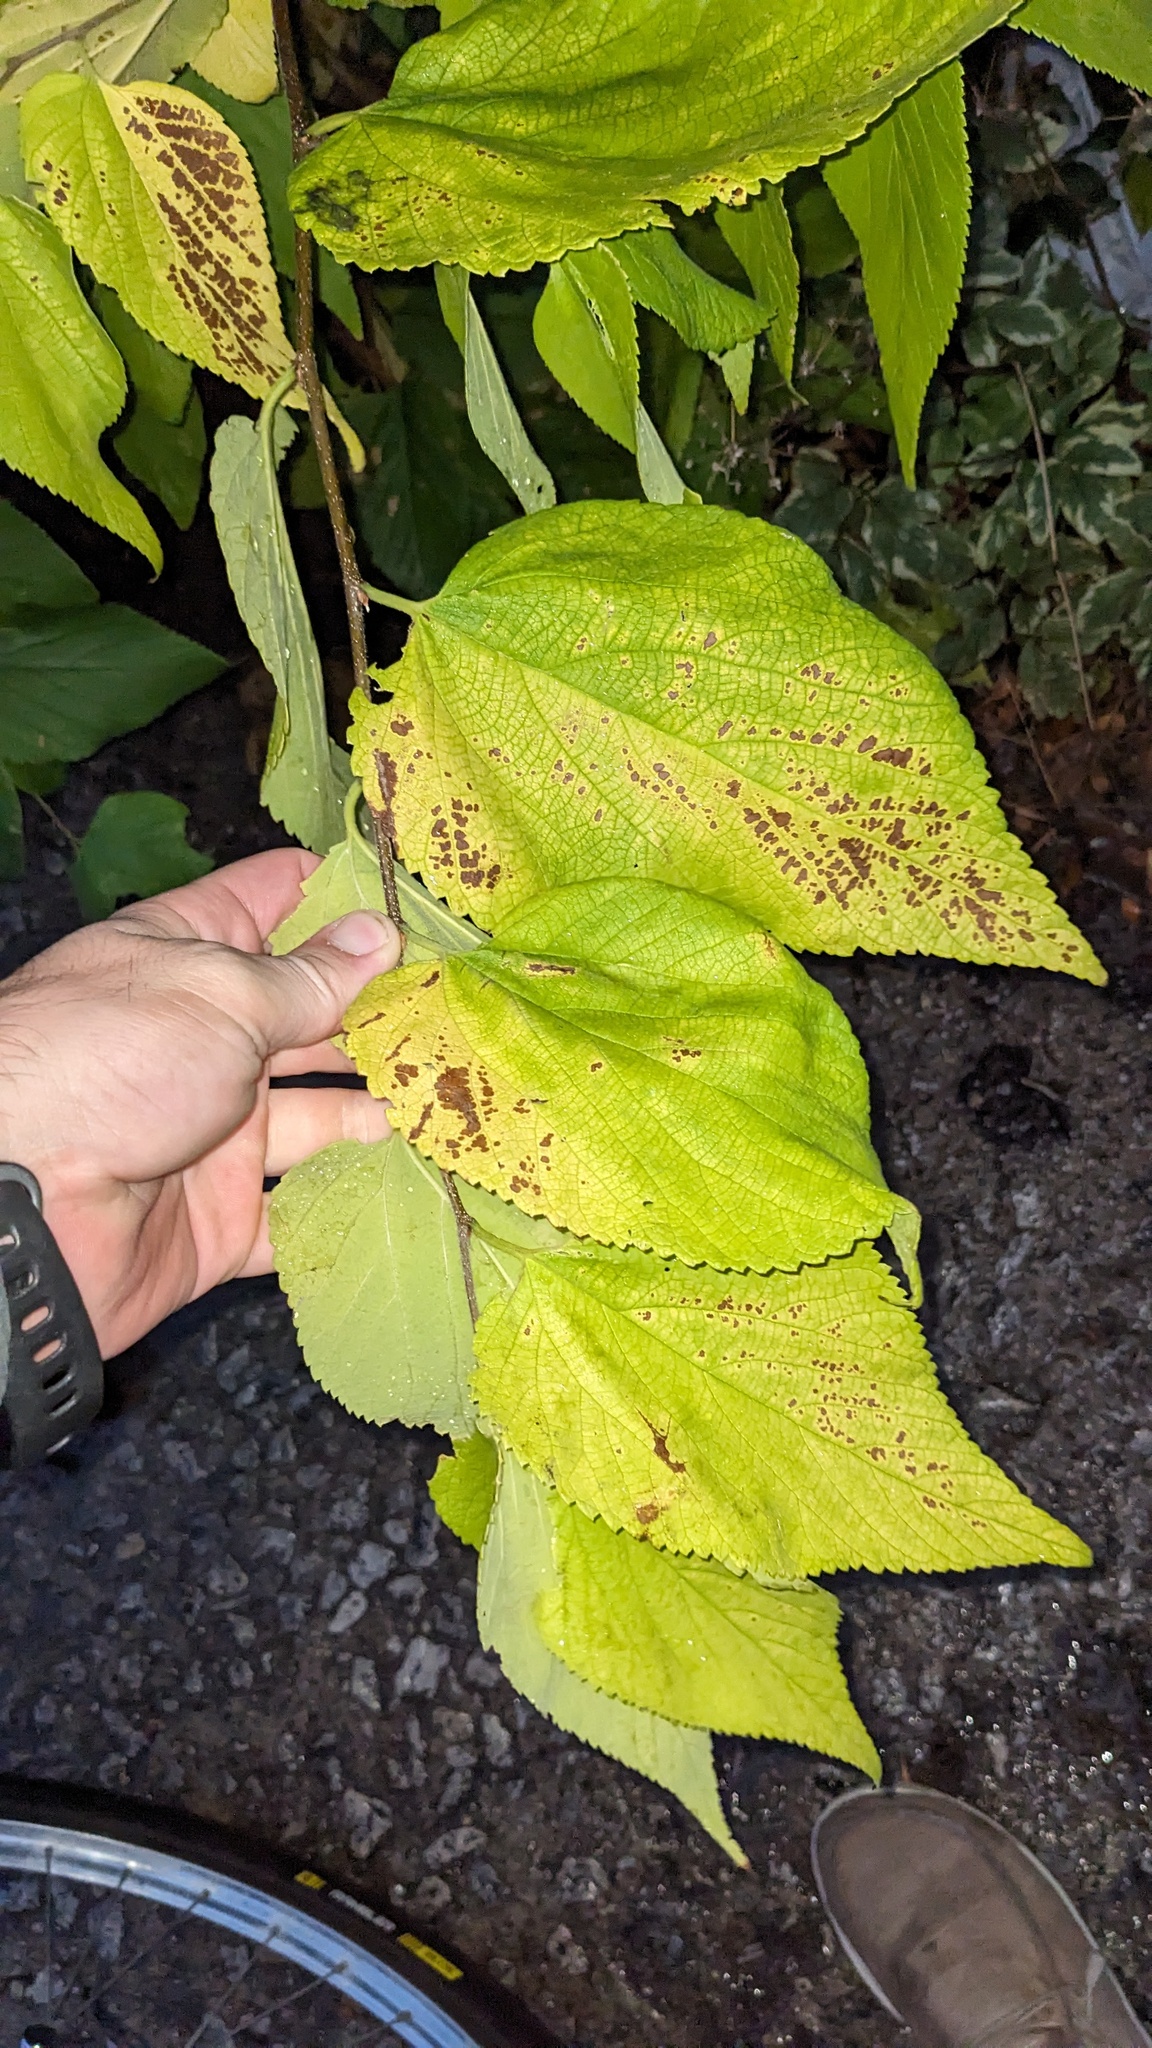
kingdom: Plantae
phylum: Tracheophyta
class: Magnoliopsida
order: Rosales
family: Cannabaceae
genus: Celtis
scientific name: Celtis occidentalis
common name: Common hackberry
